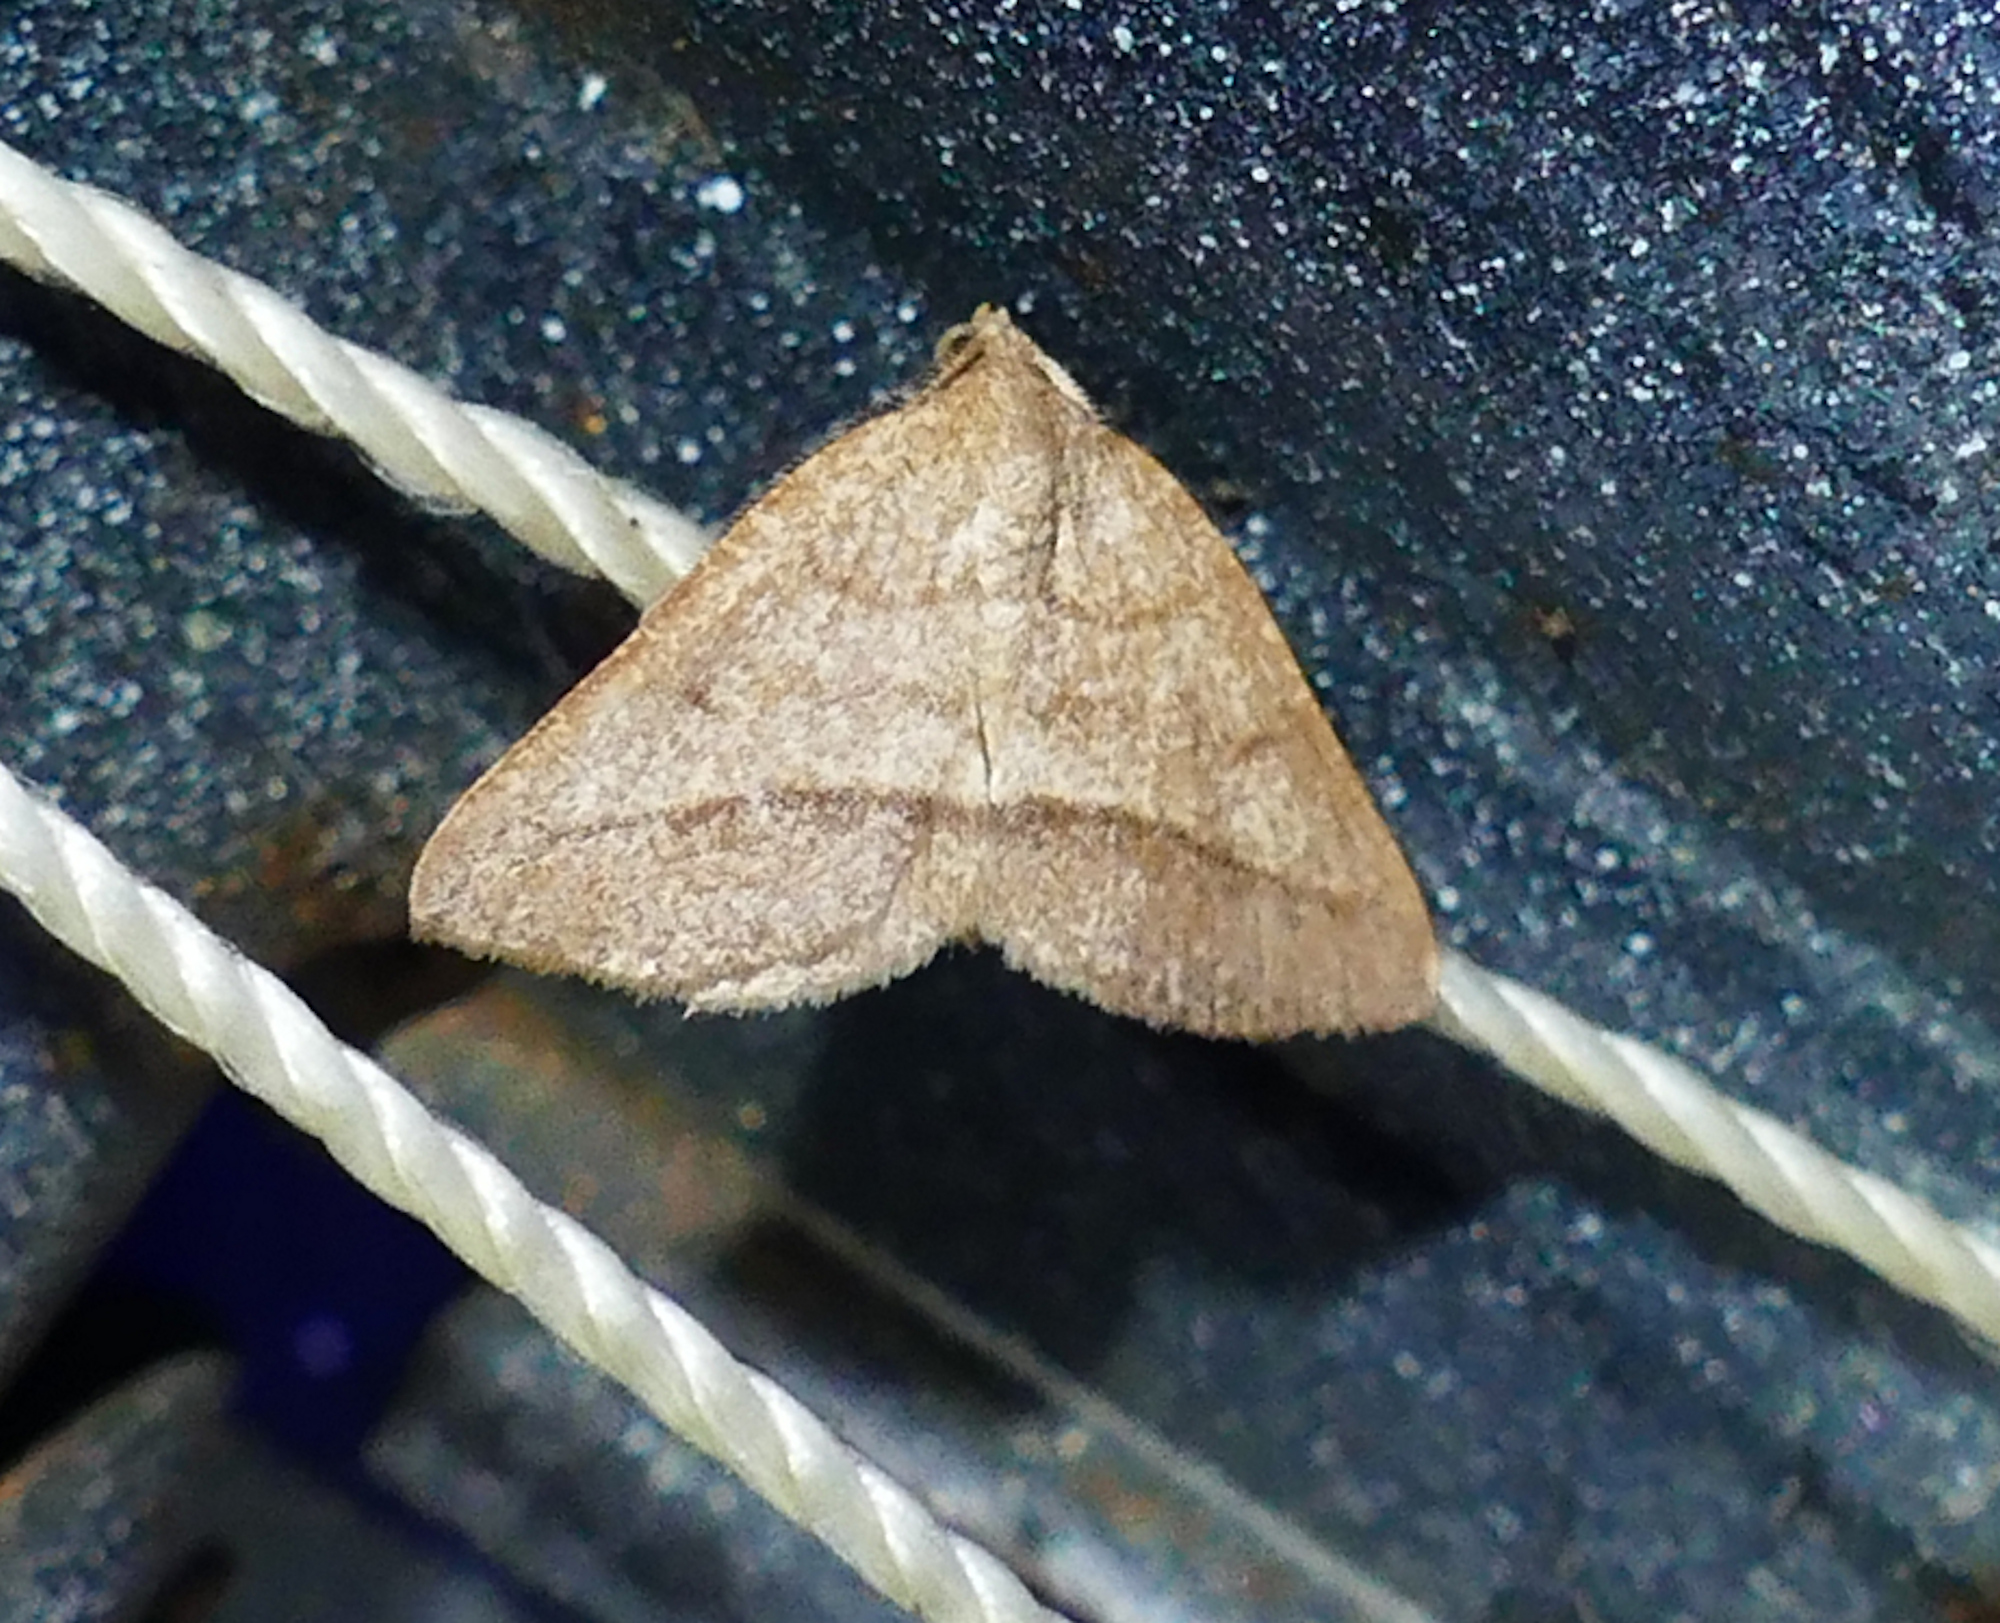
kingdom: Animalia
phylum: Arthropoda
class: Insecta
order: Lepidoptera
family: Geometridae
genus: Macaria
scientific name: Macaria varadaria
